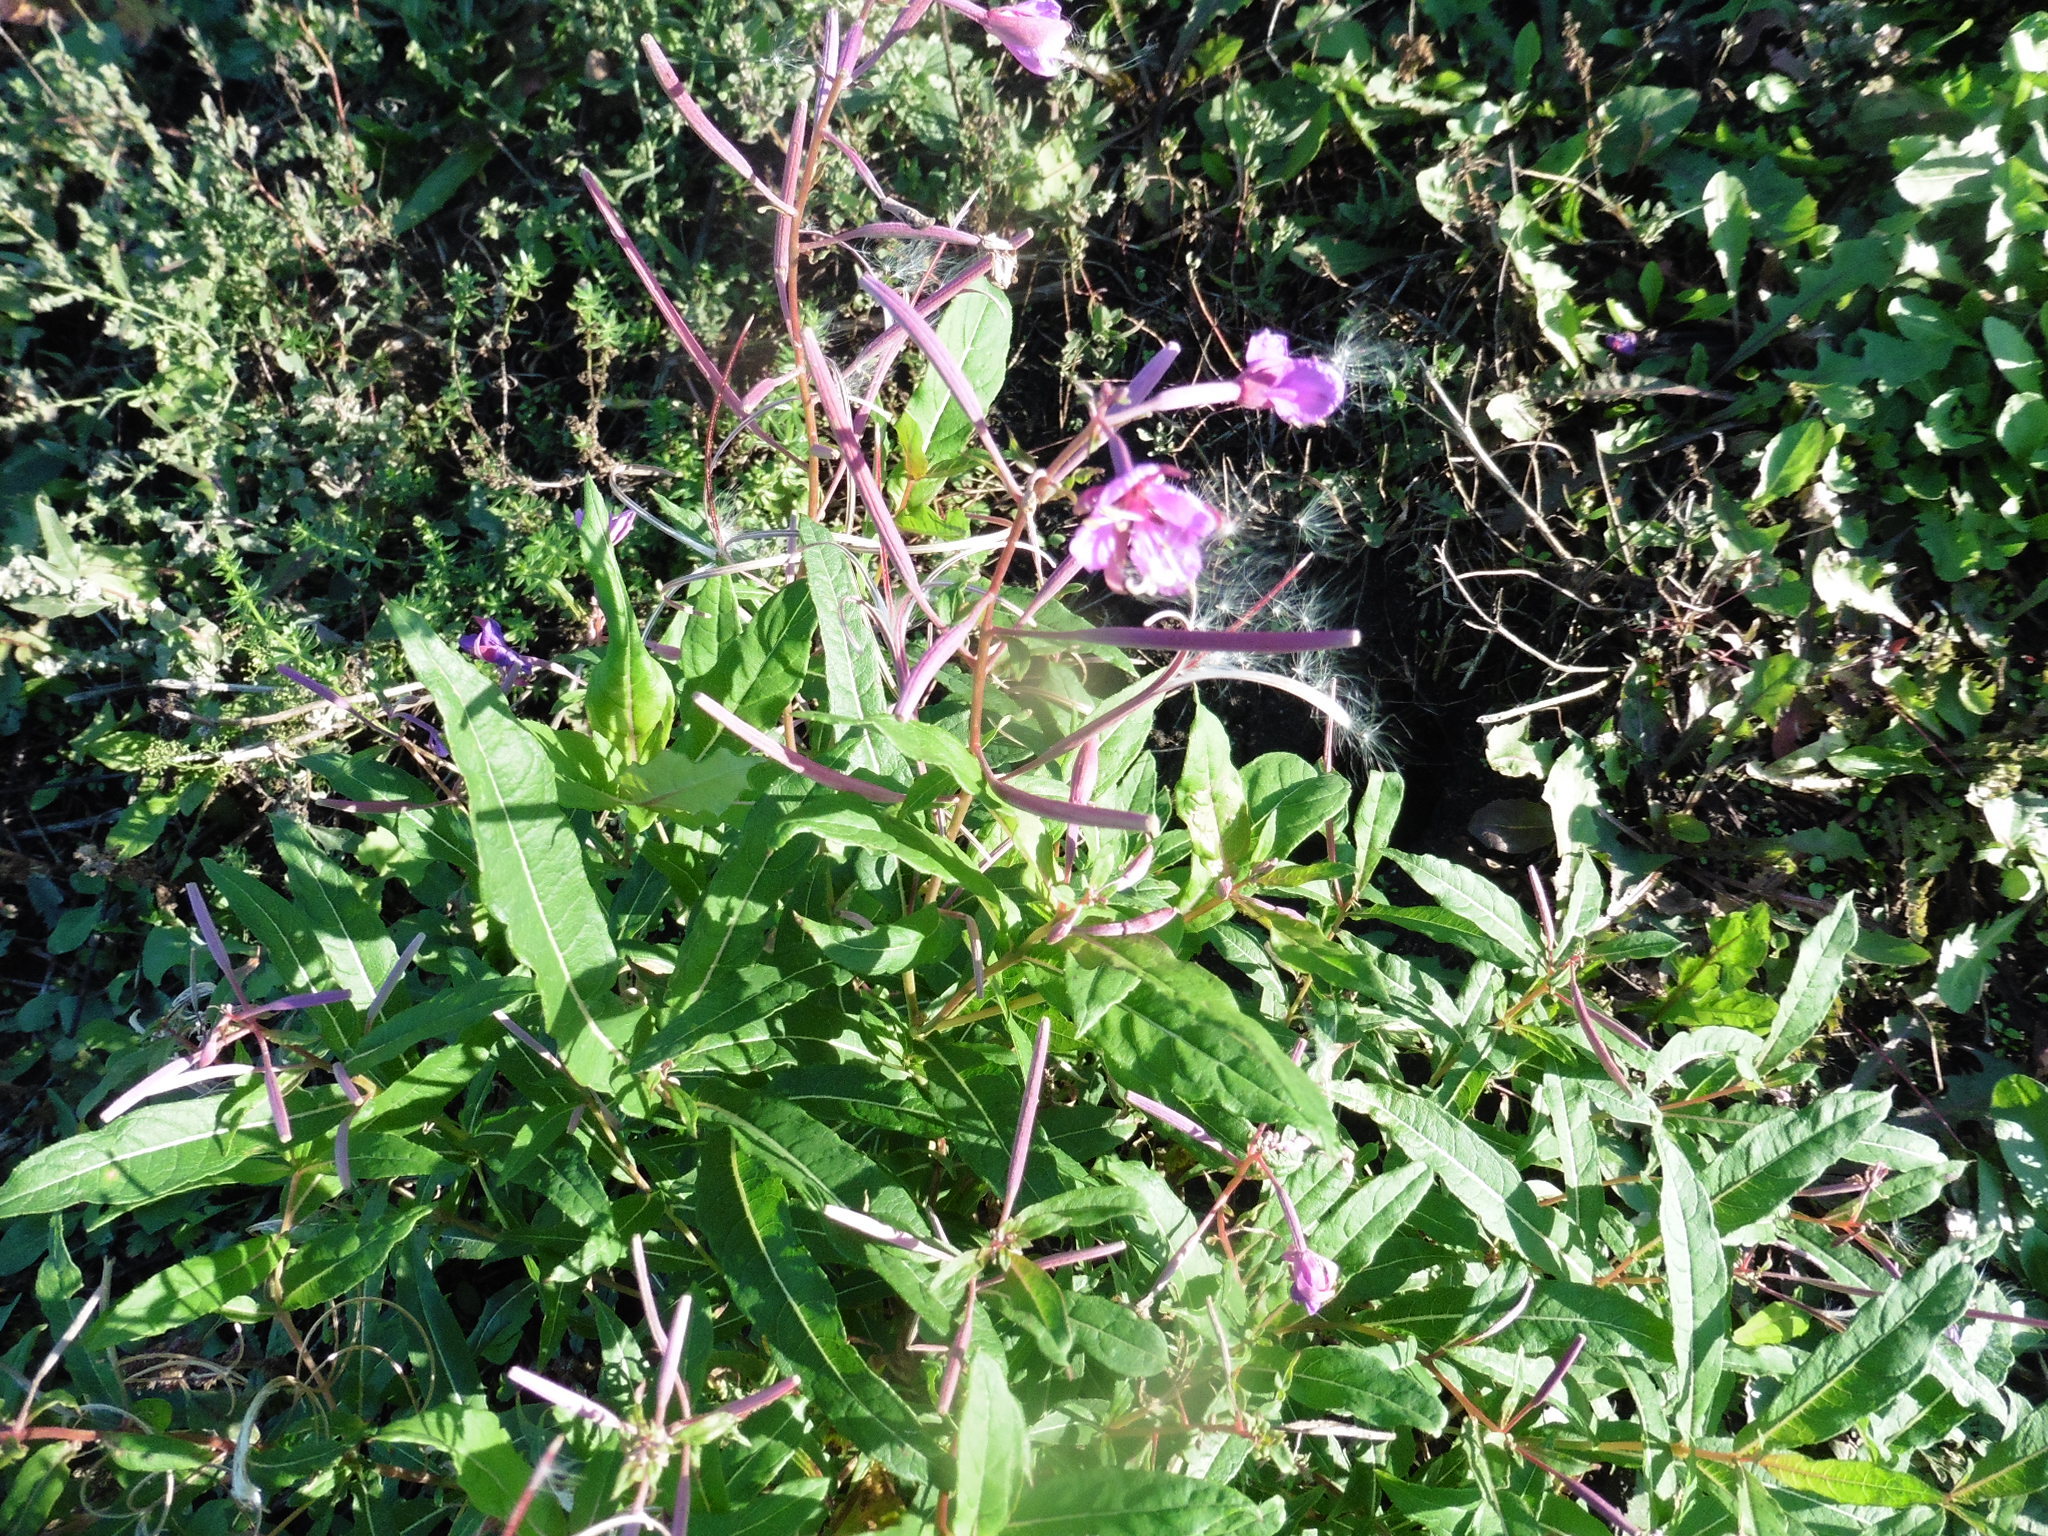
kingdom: Plantae
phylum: Tracheophyta
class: Magnoliopsida
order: Myrtales
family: Onagraceae
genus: Chamaenerion
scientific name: Chamaenerion angustifolium
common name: Fireweed
